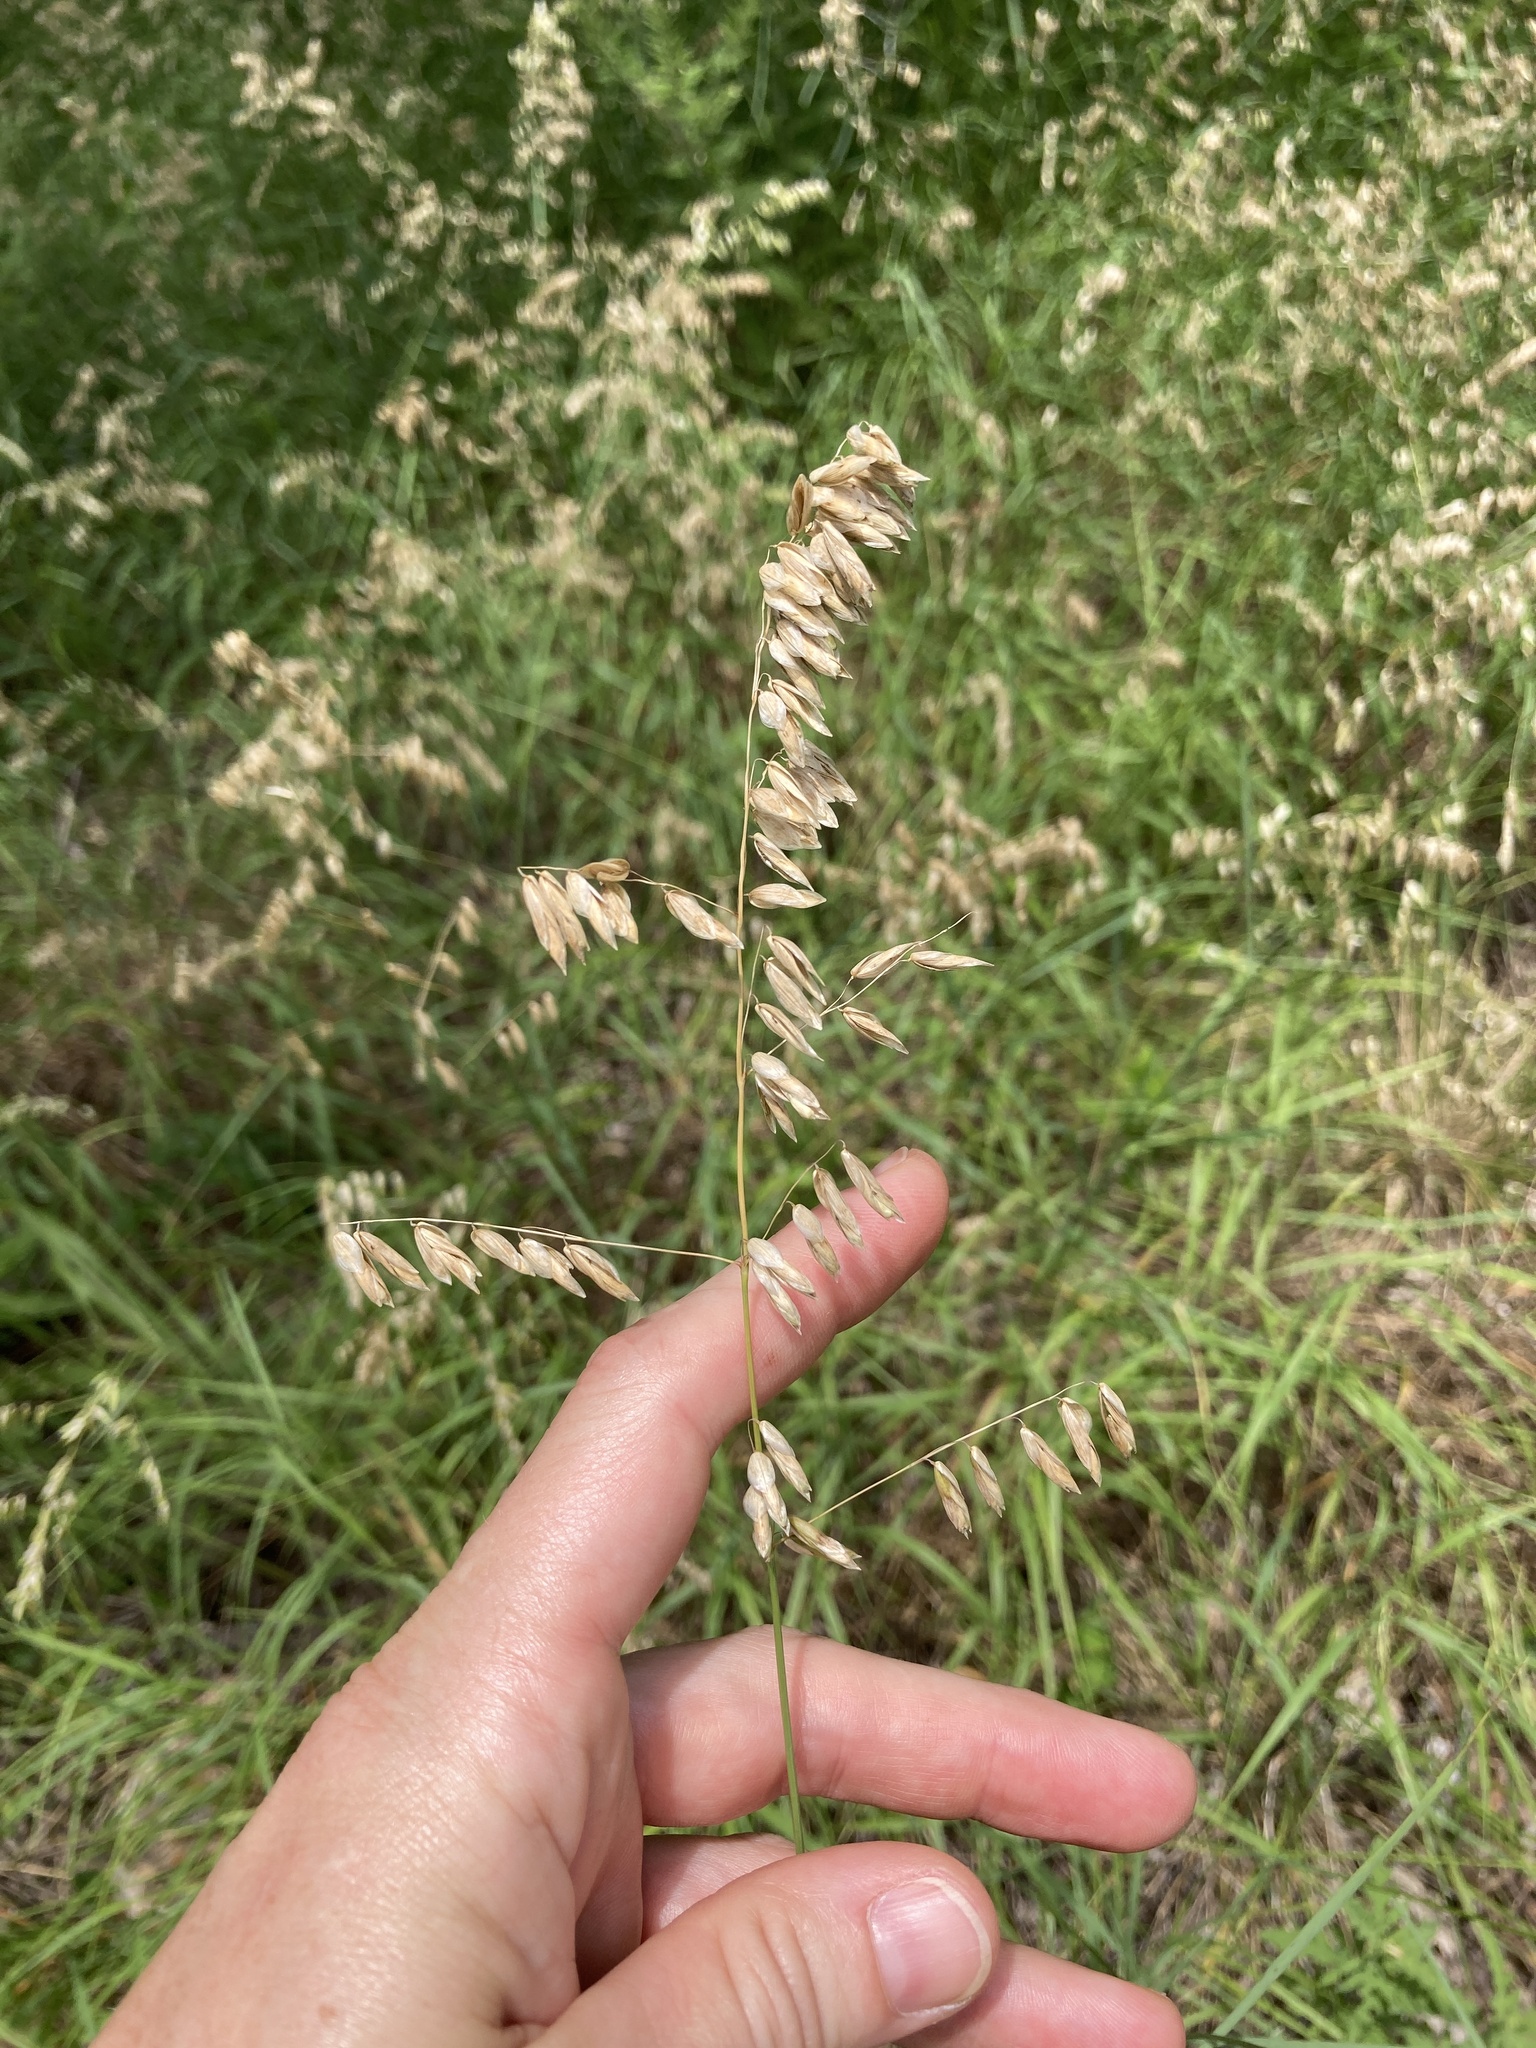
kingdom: Plantae
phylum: Tracheophyta
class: Liliopsida
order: Poales
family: Poaceae
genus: Melica
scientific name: Melica nitens
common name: Three-flower melic
